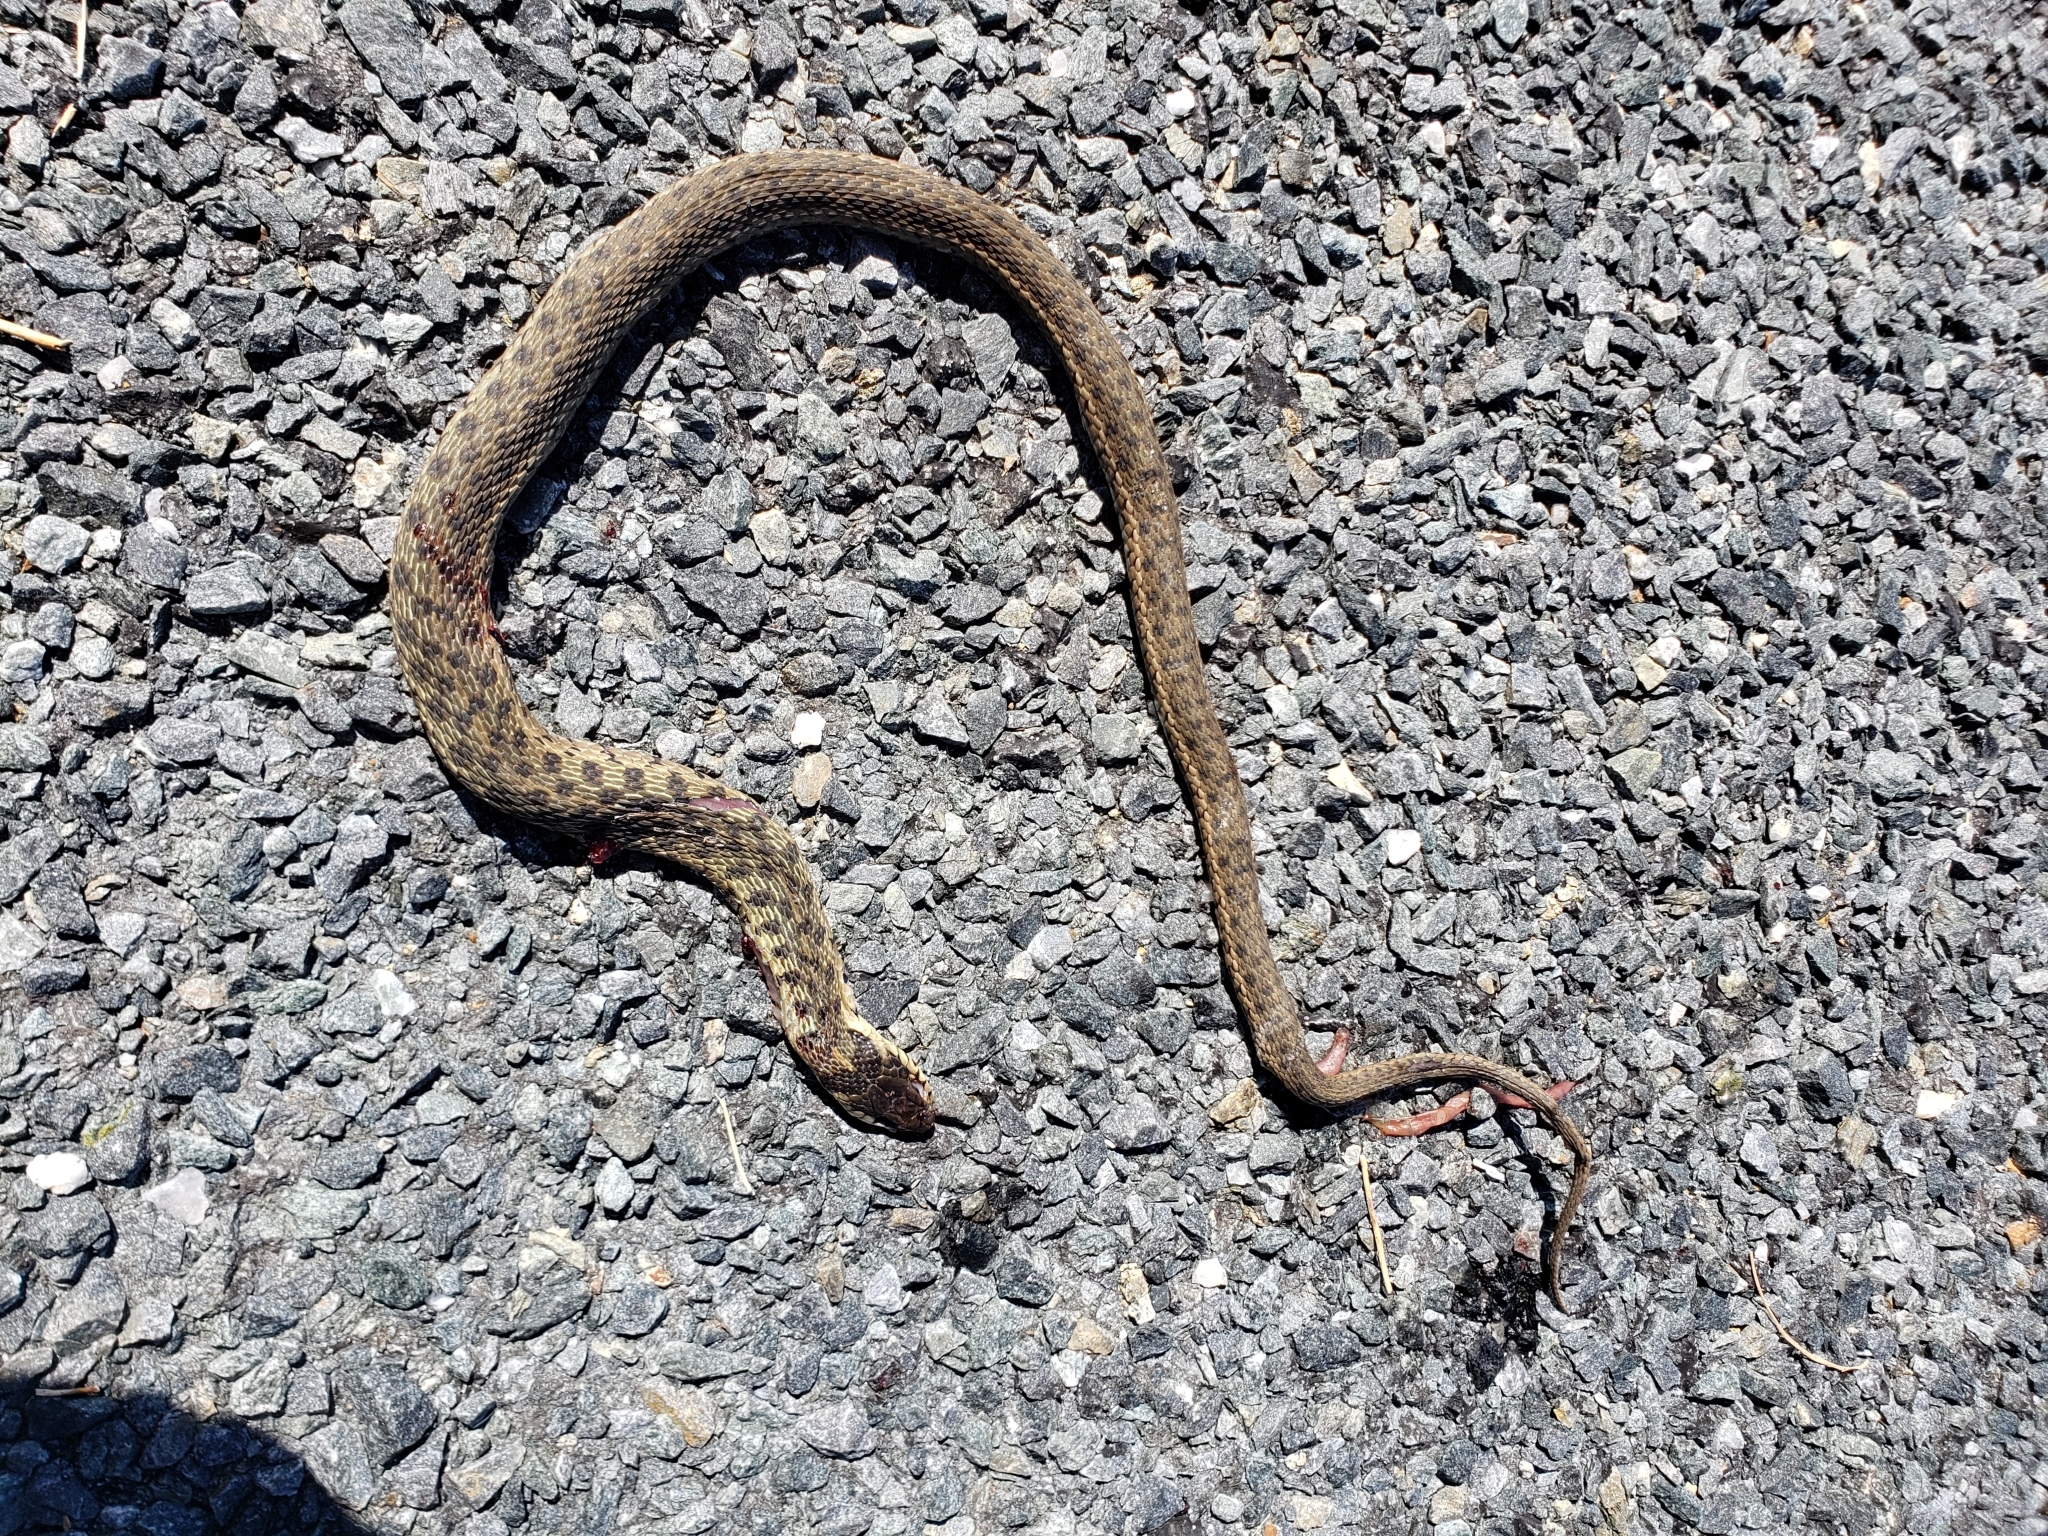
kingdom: Animalia
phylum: Chordata
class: Squamata
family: Colubridae
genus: Thamnophis
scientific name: Thamnophis sirtalis
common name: Common garter snake
